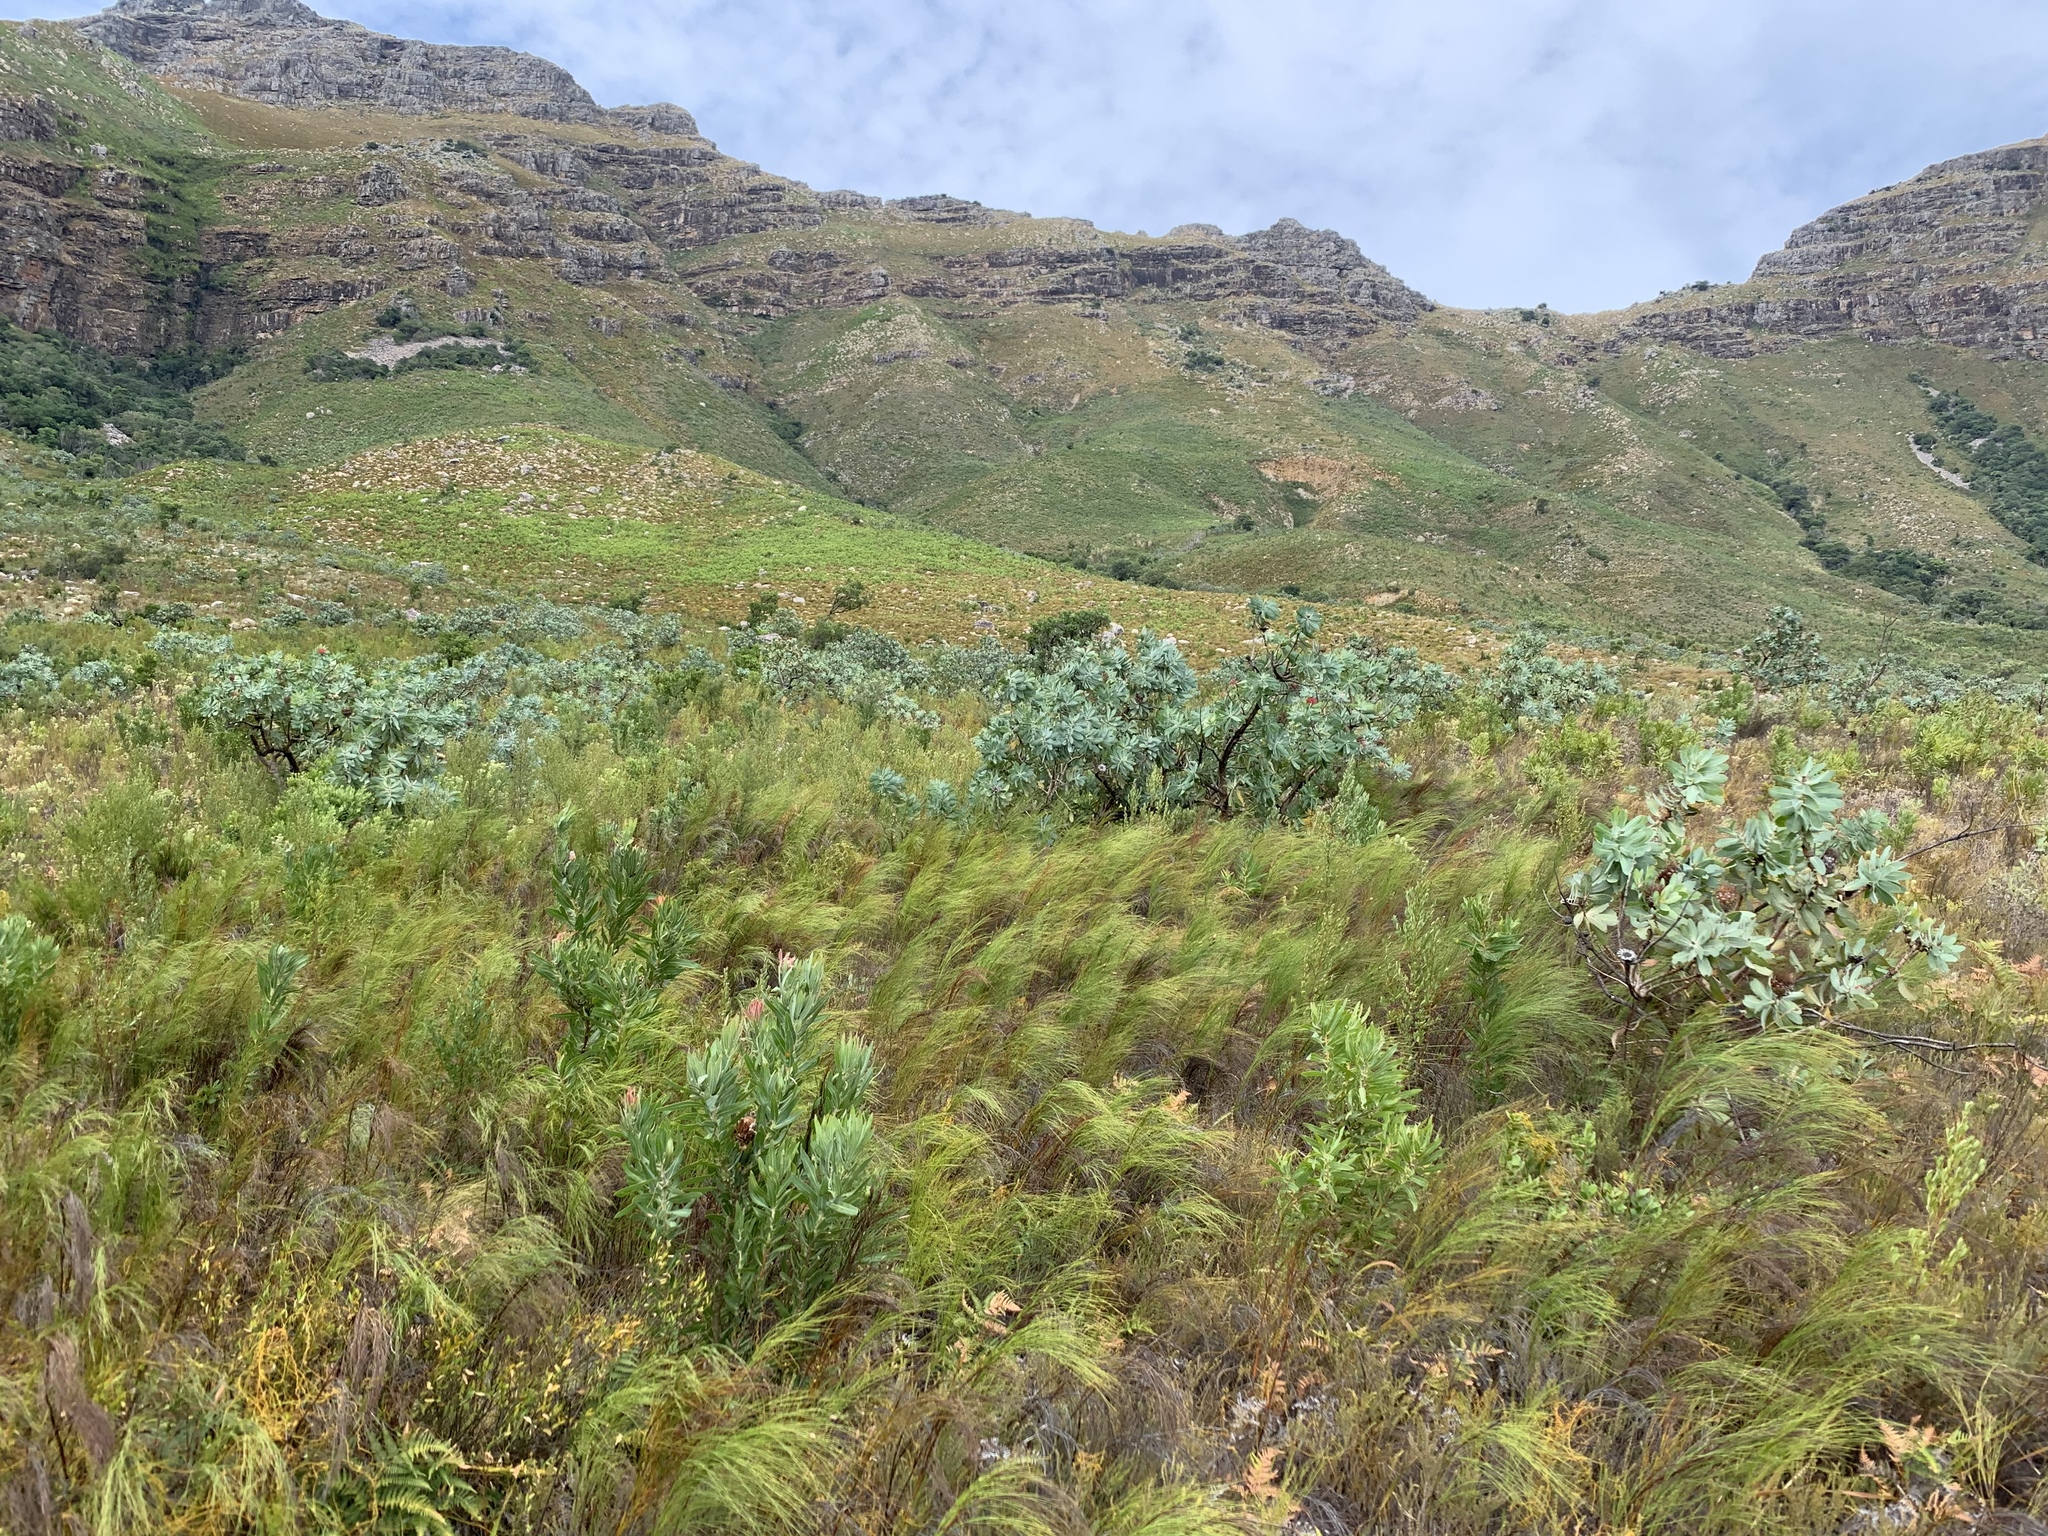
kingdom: Plantae
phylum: Tracheophyta
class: Magnoliopsida
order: Proteales
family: Proteaceae
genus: Protea
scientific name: Protea nitida
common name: Tree protea
